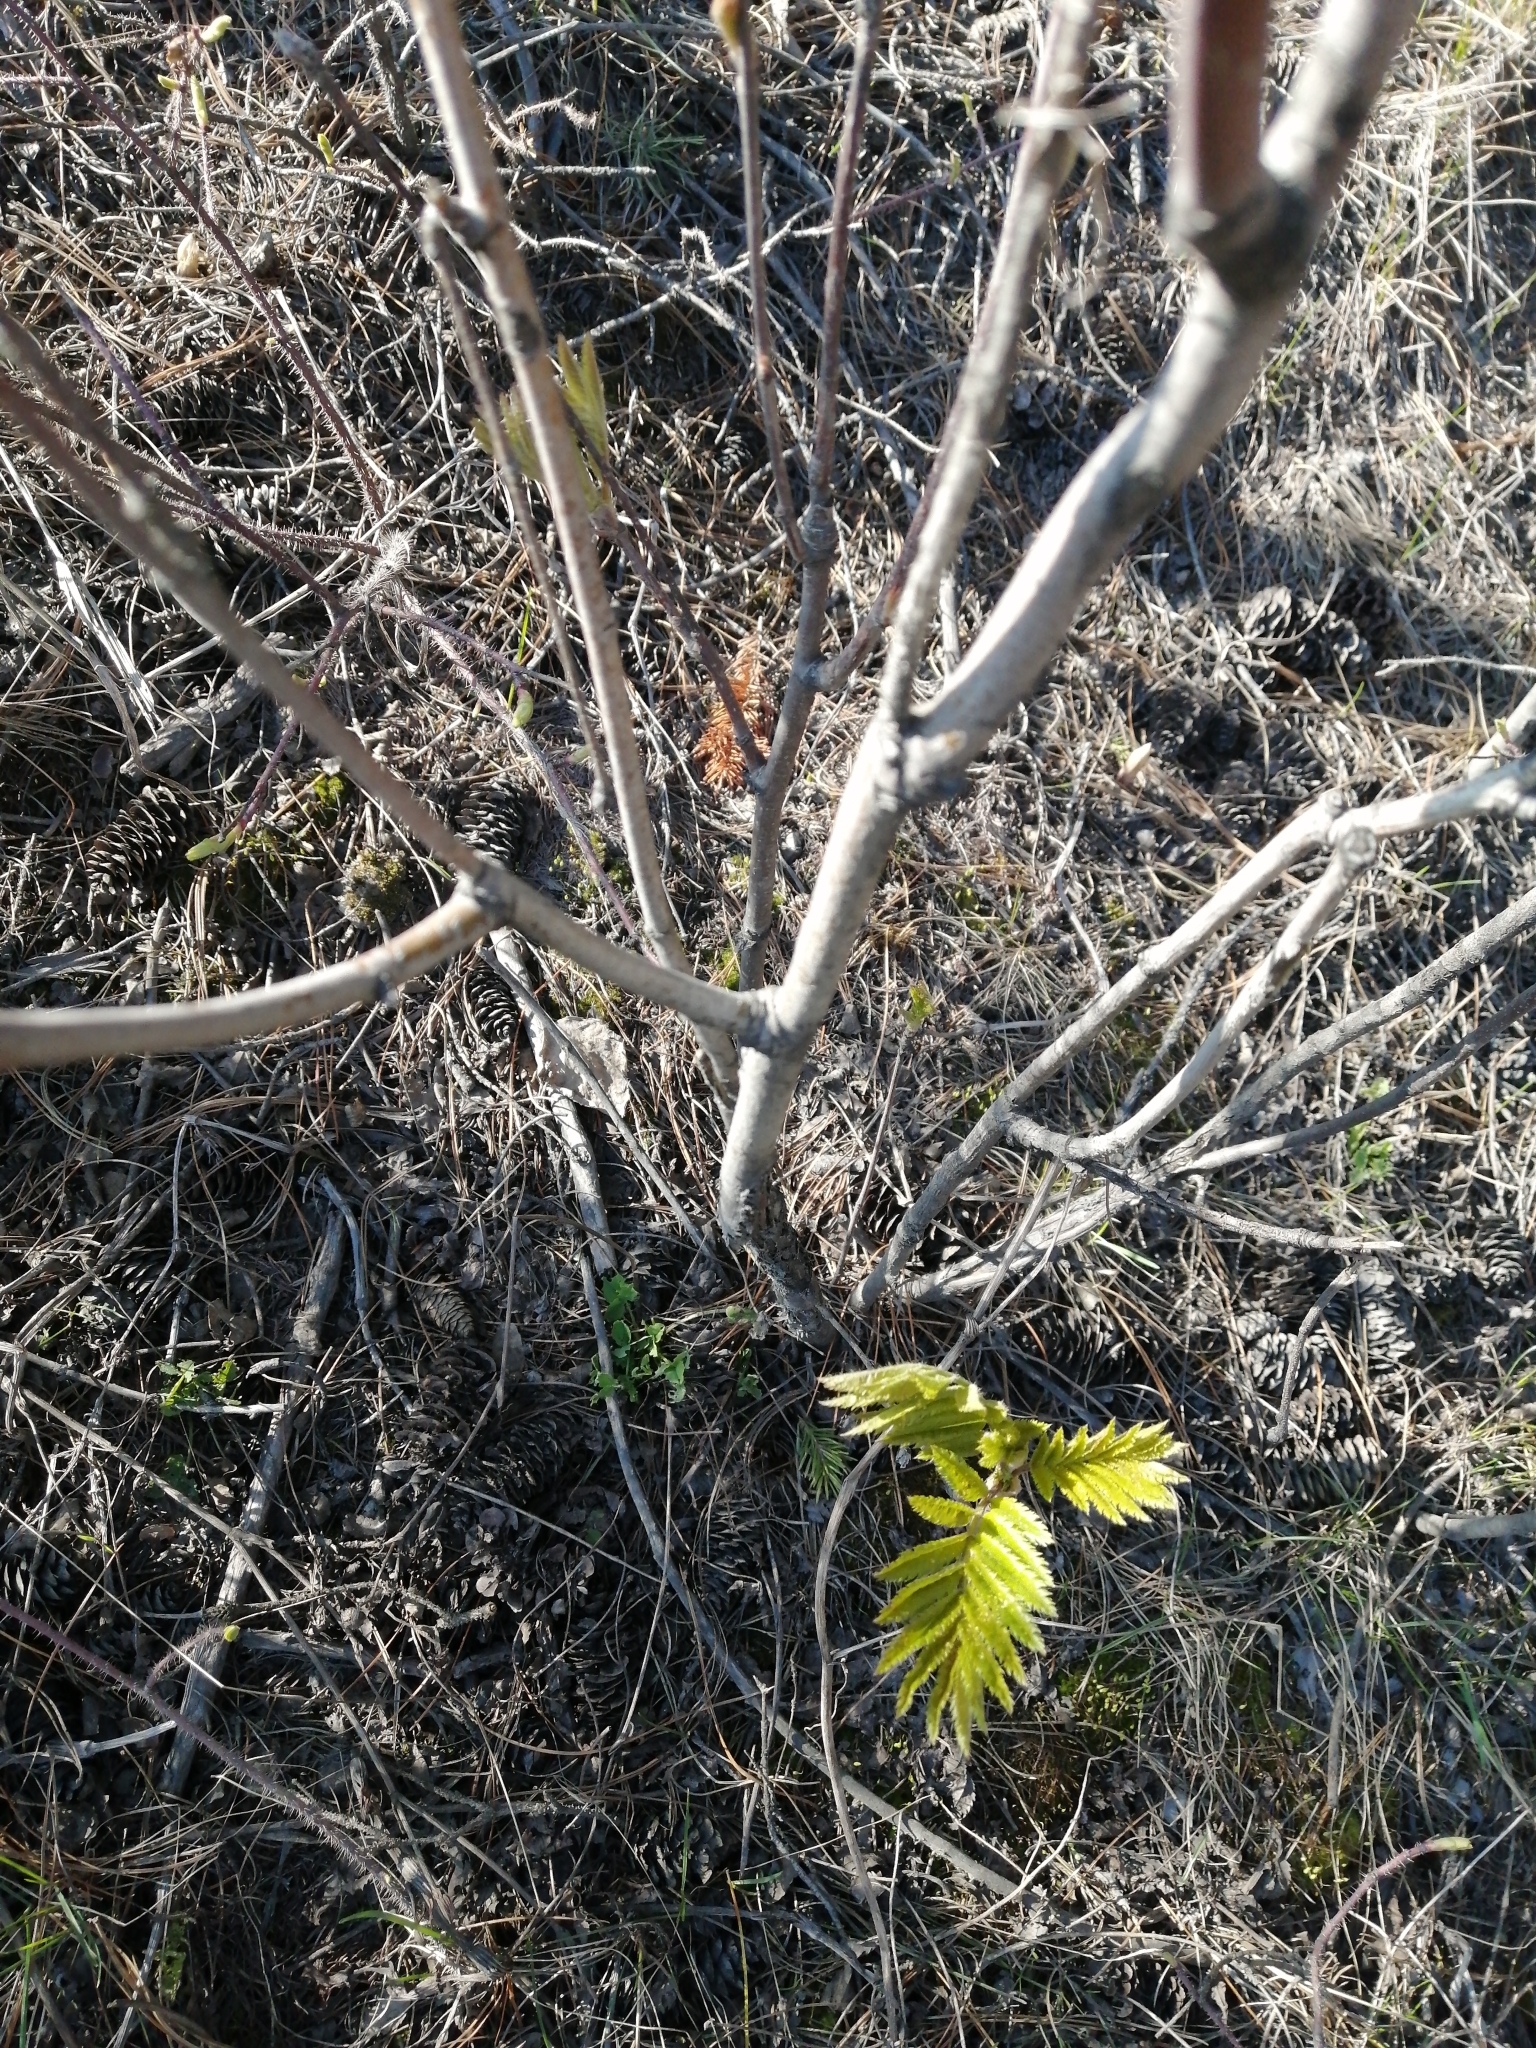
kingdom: Plantae
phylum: Tracheophyta
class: Magnoliopsida
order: Rosales
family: Rosaceae
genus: Sorbus
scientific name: Sorbus aucuparia
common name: Rowan
